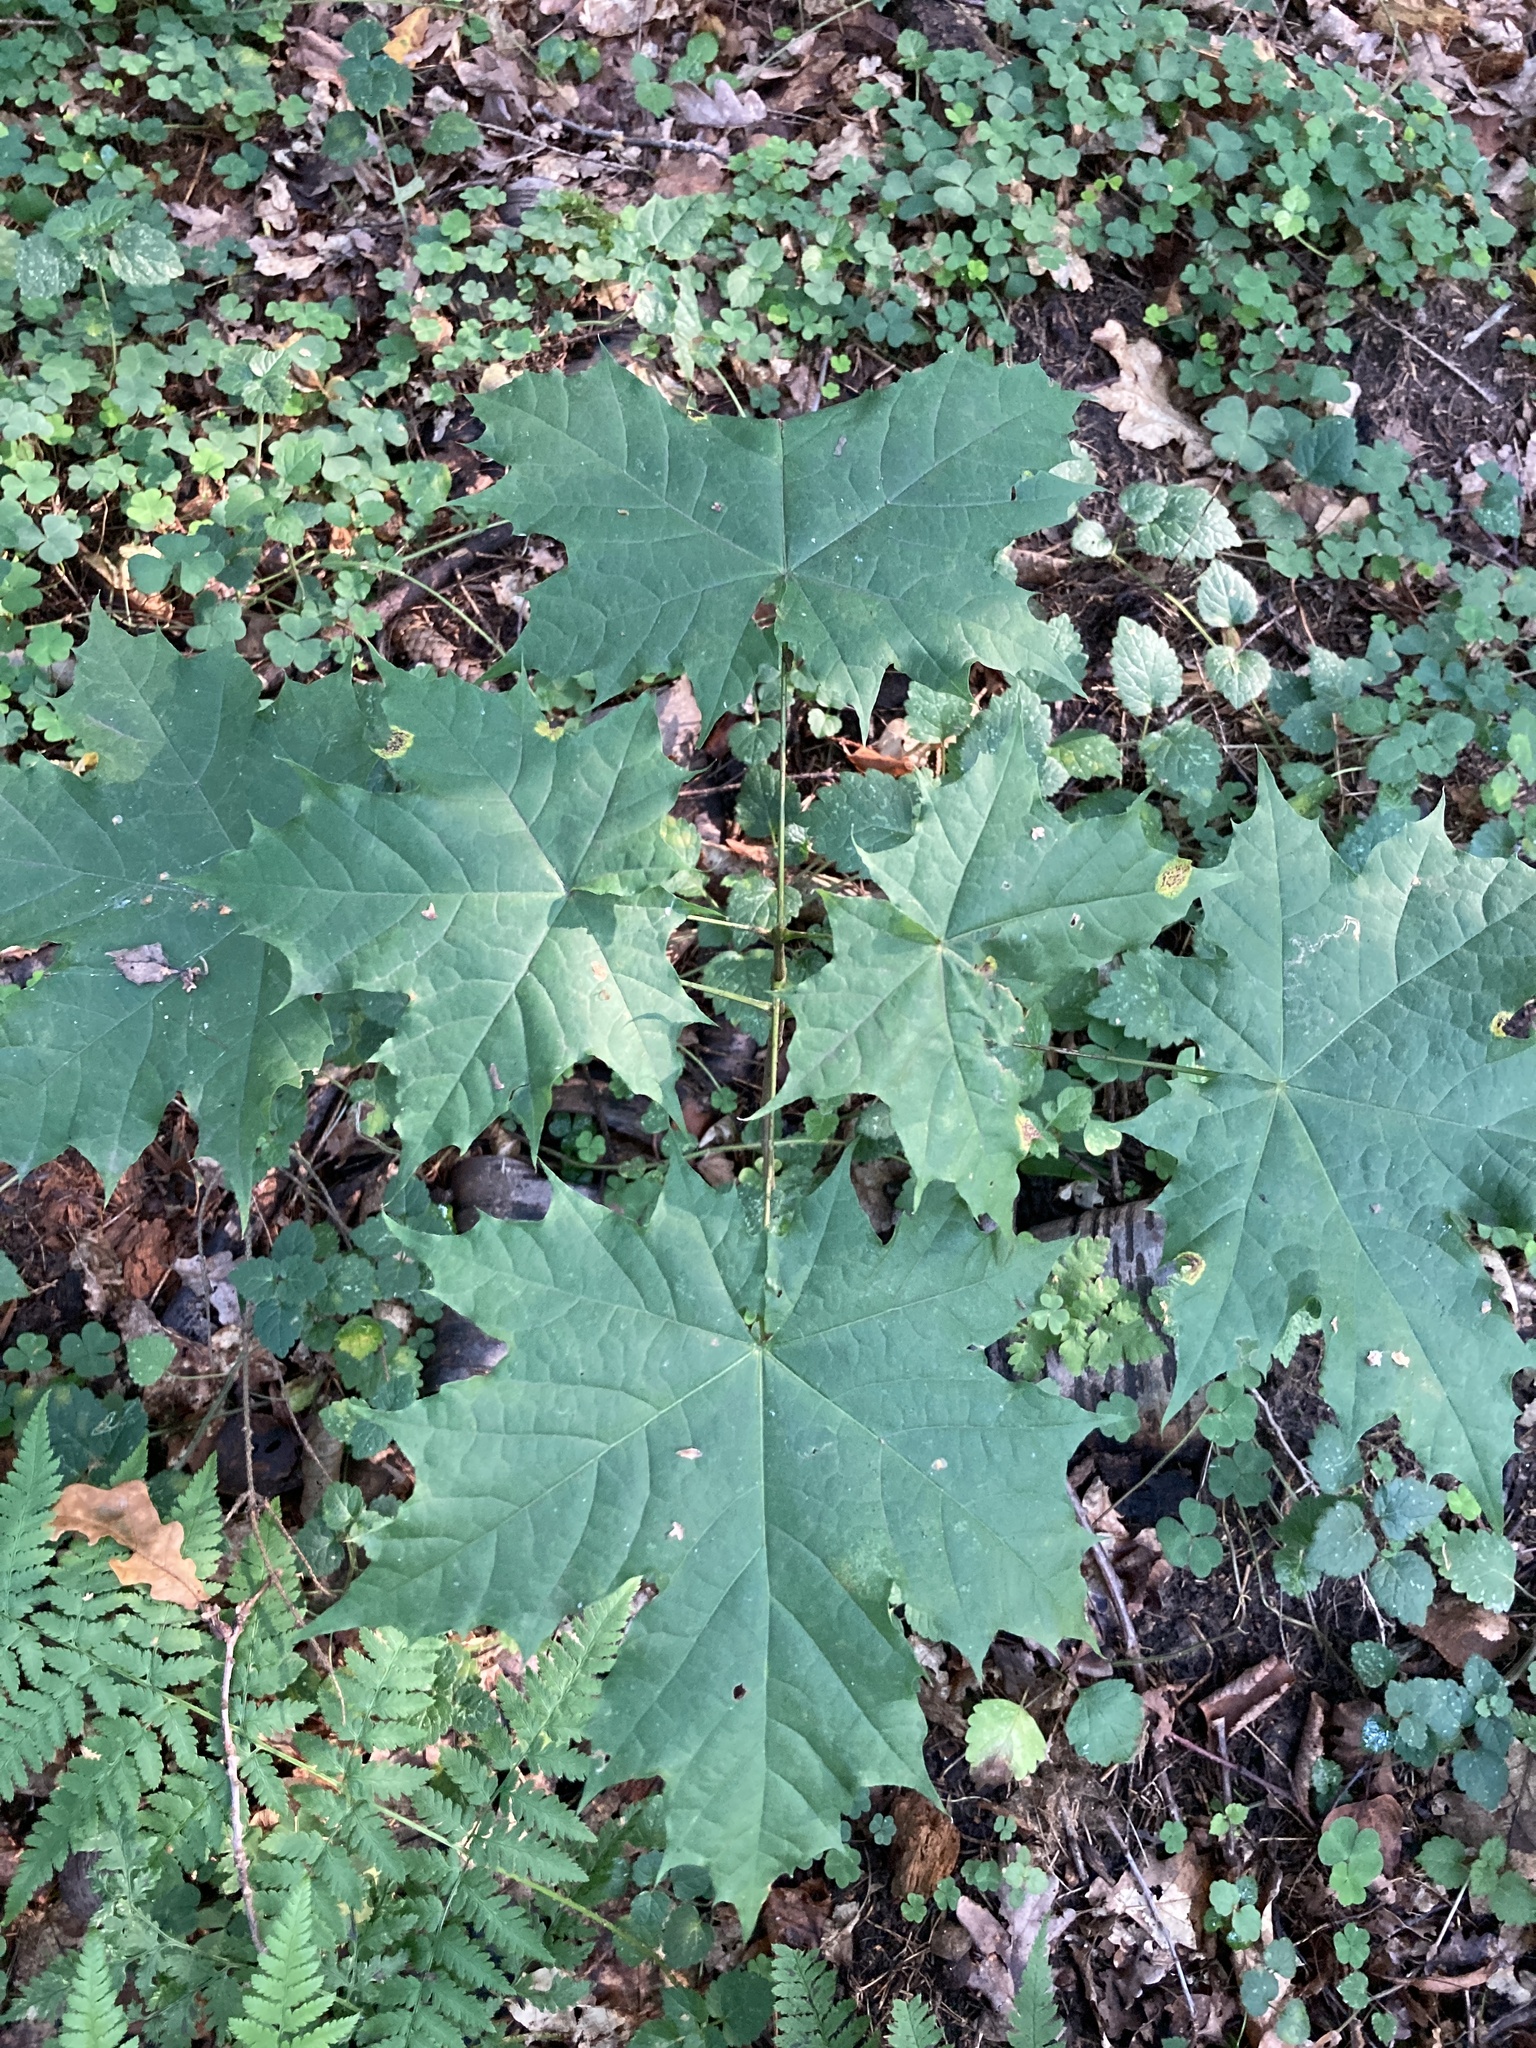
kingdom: Plantae
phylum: Tracheophyta
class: Magnoliopsida
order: Sapindales
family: Sapindaceae
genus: Acer
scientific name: Acer platanoides
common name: Norway maple
